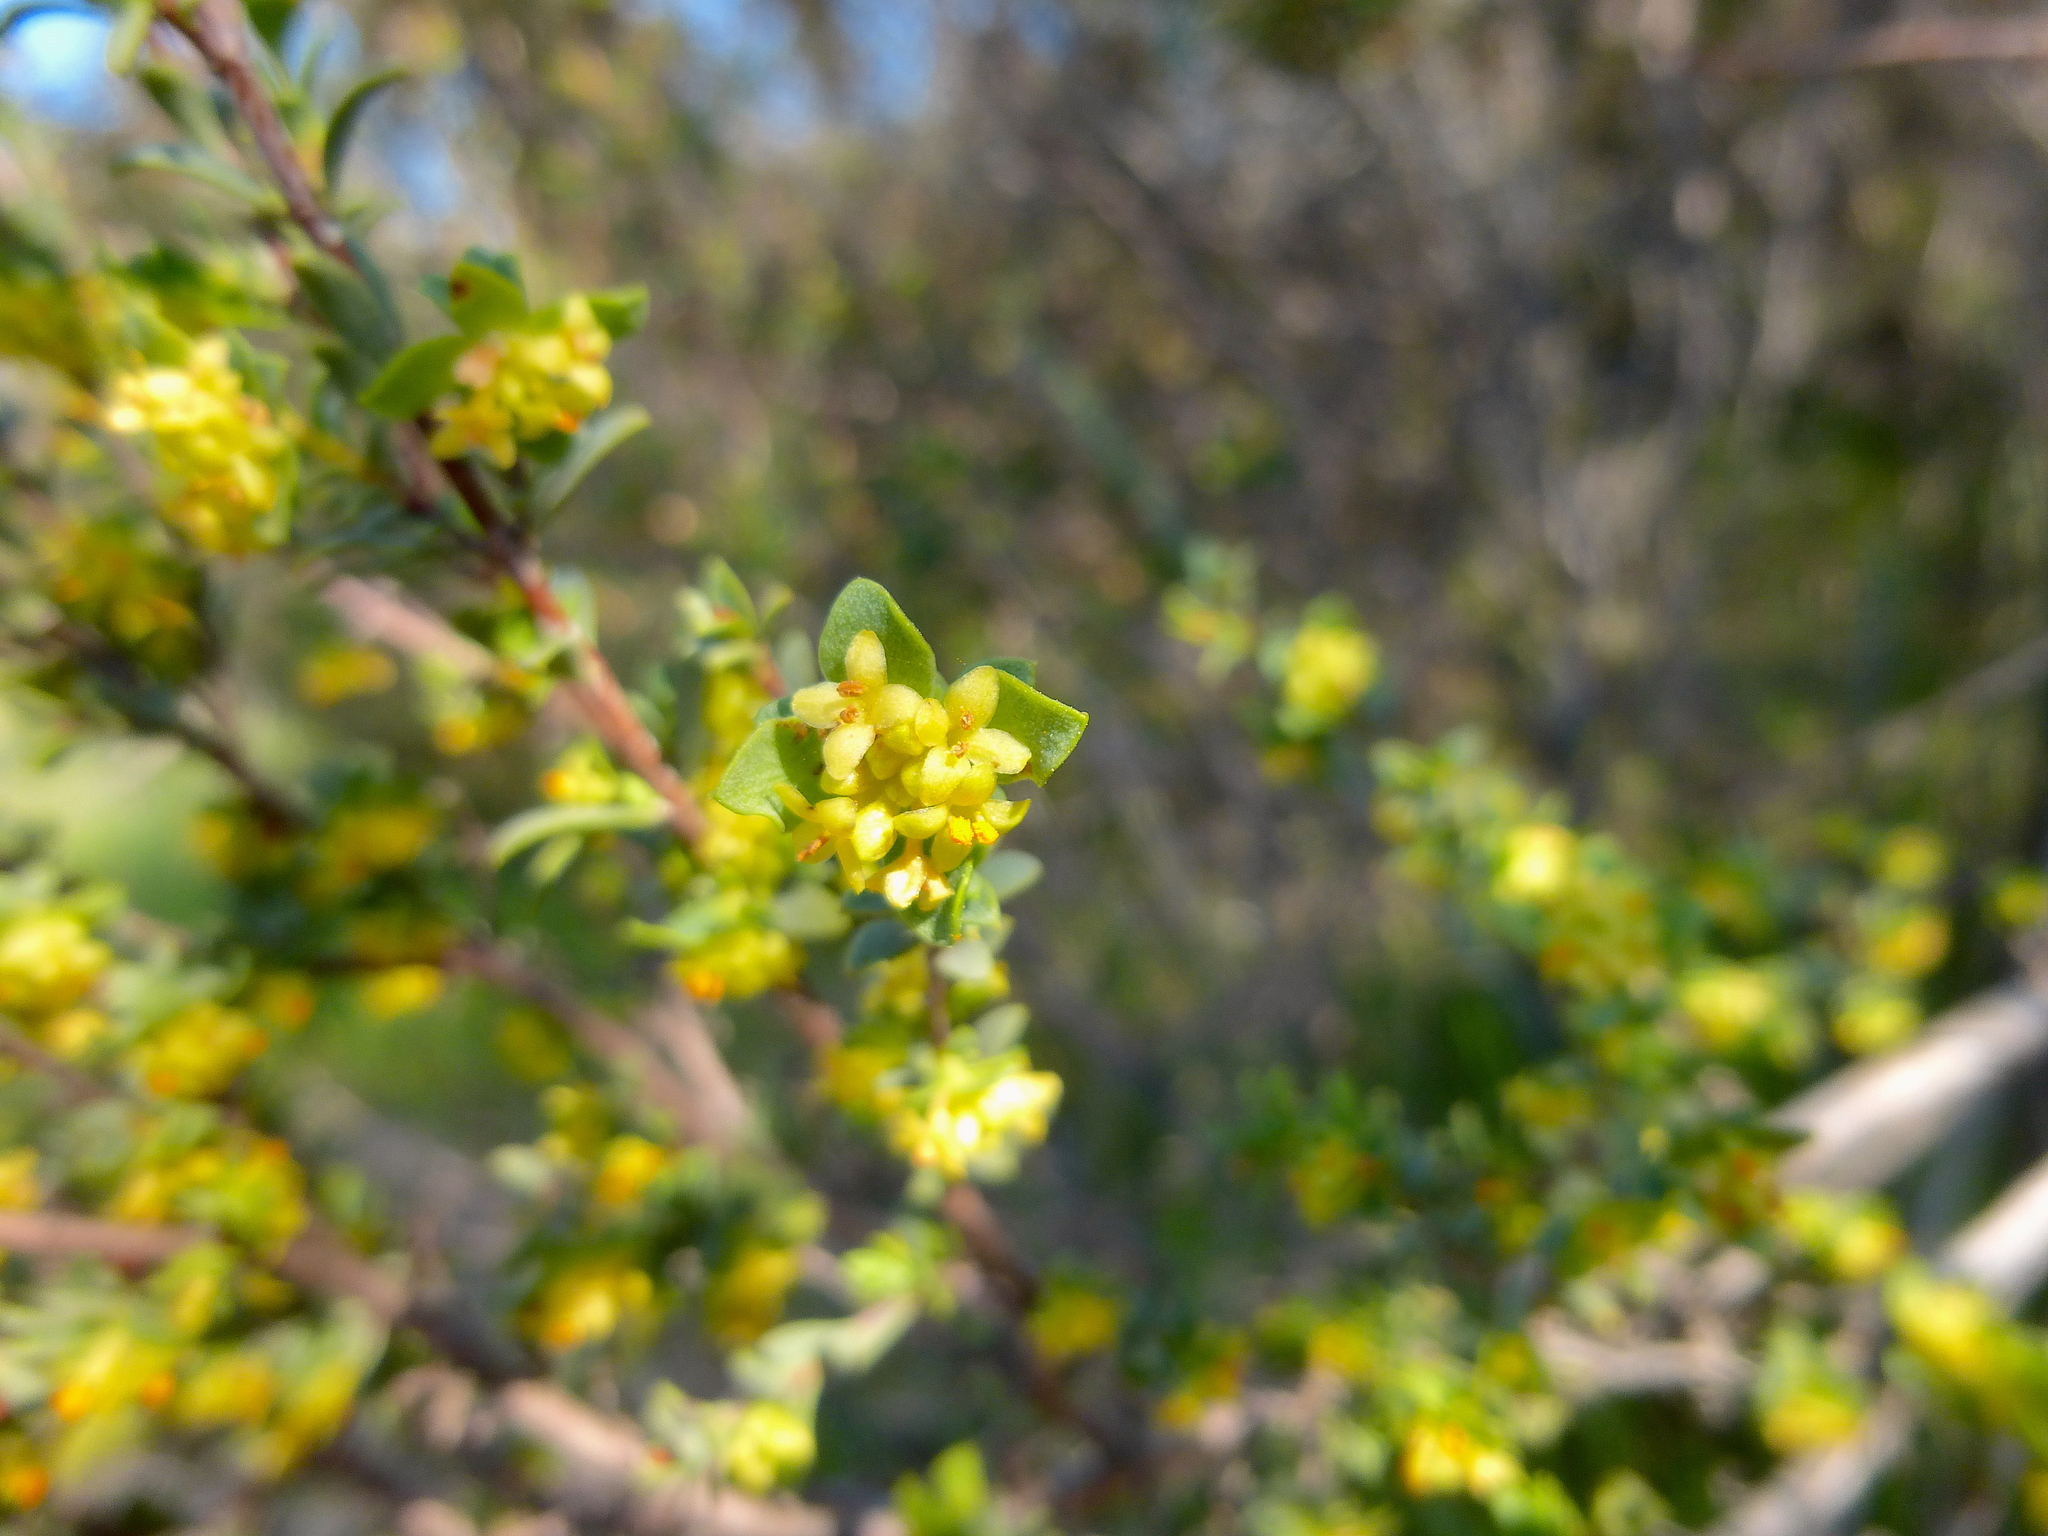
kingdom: Plantae
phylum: Tracheophyta
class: Magnoliopsida
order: Malvales
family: Thymelaeaceae
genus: Pimelea
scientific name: Pimelea serpyllifolia
